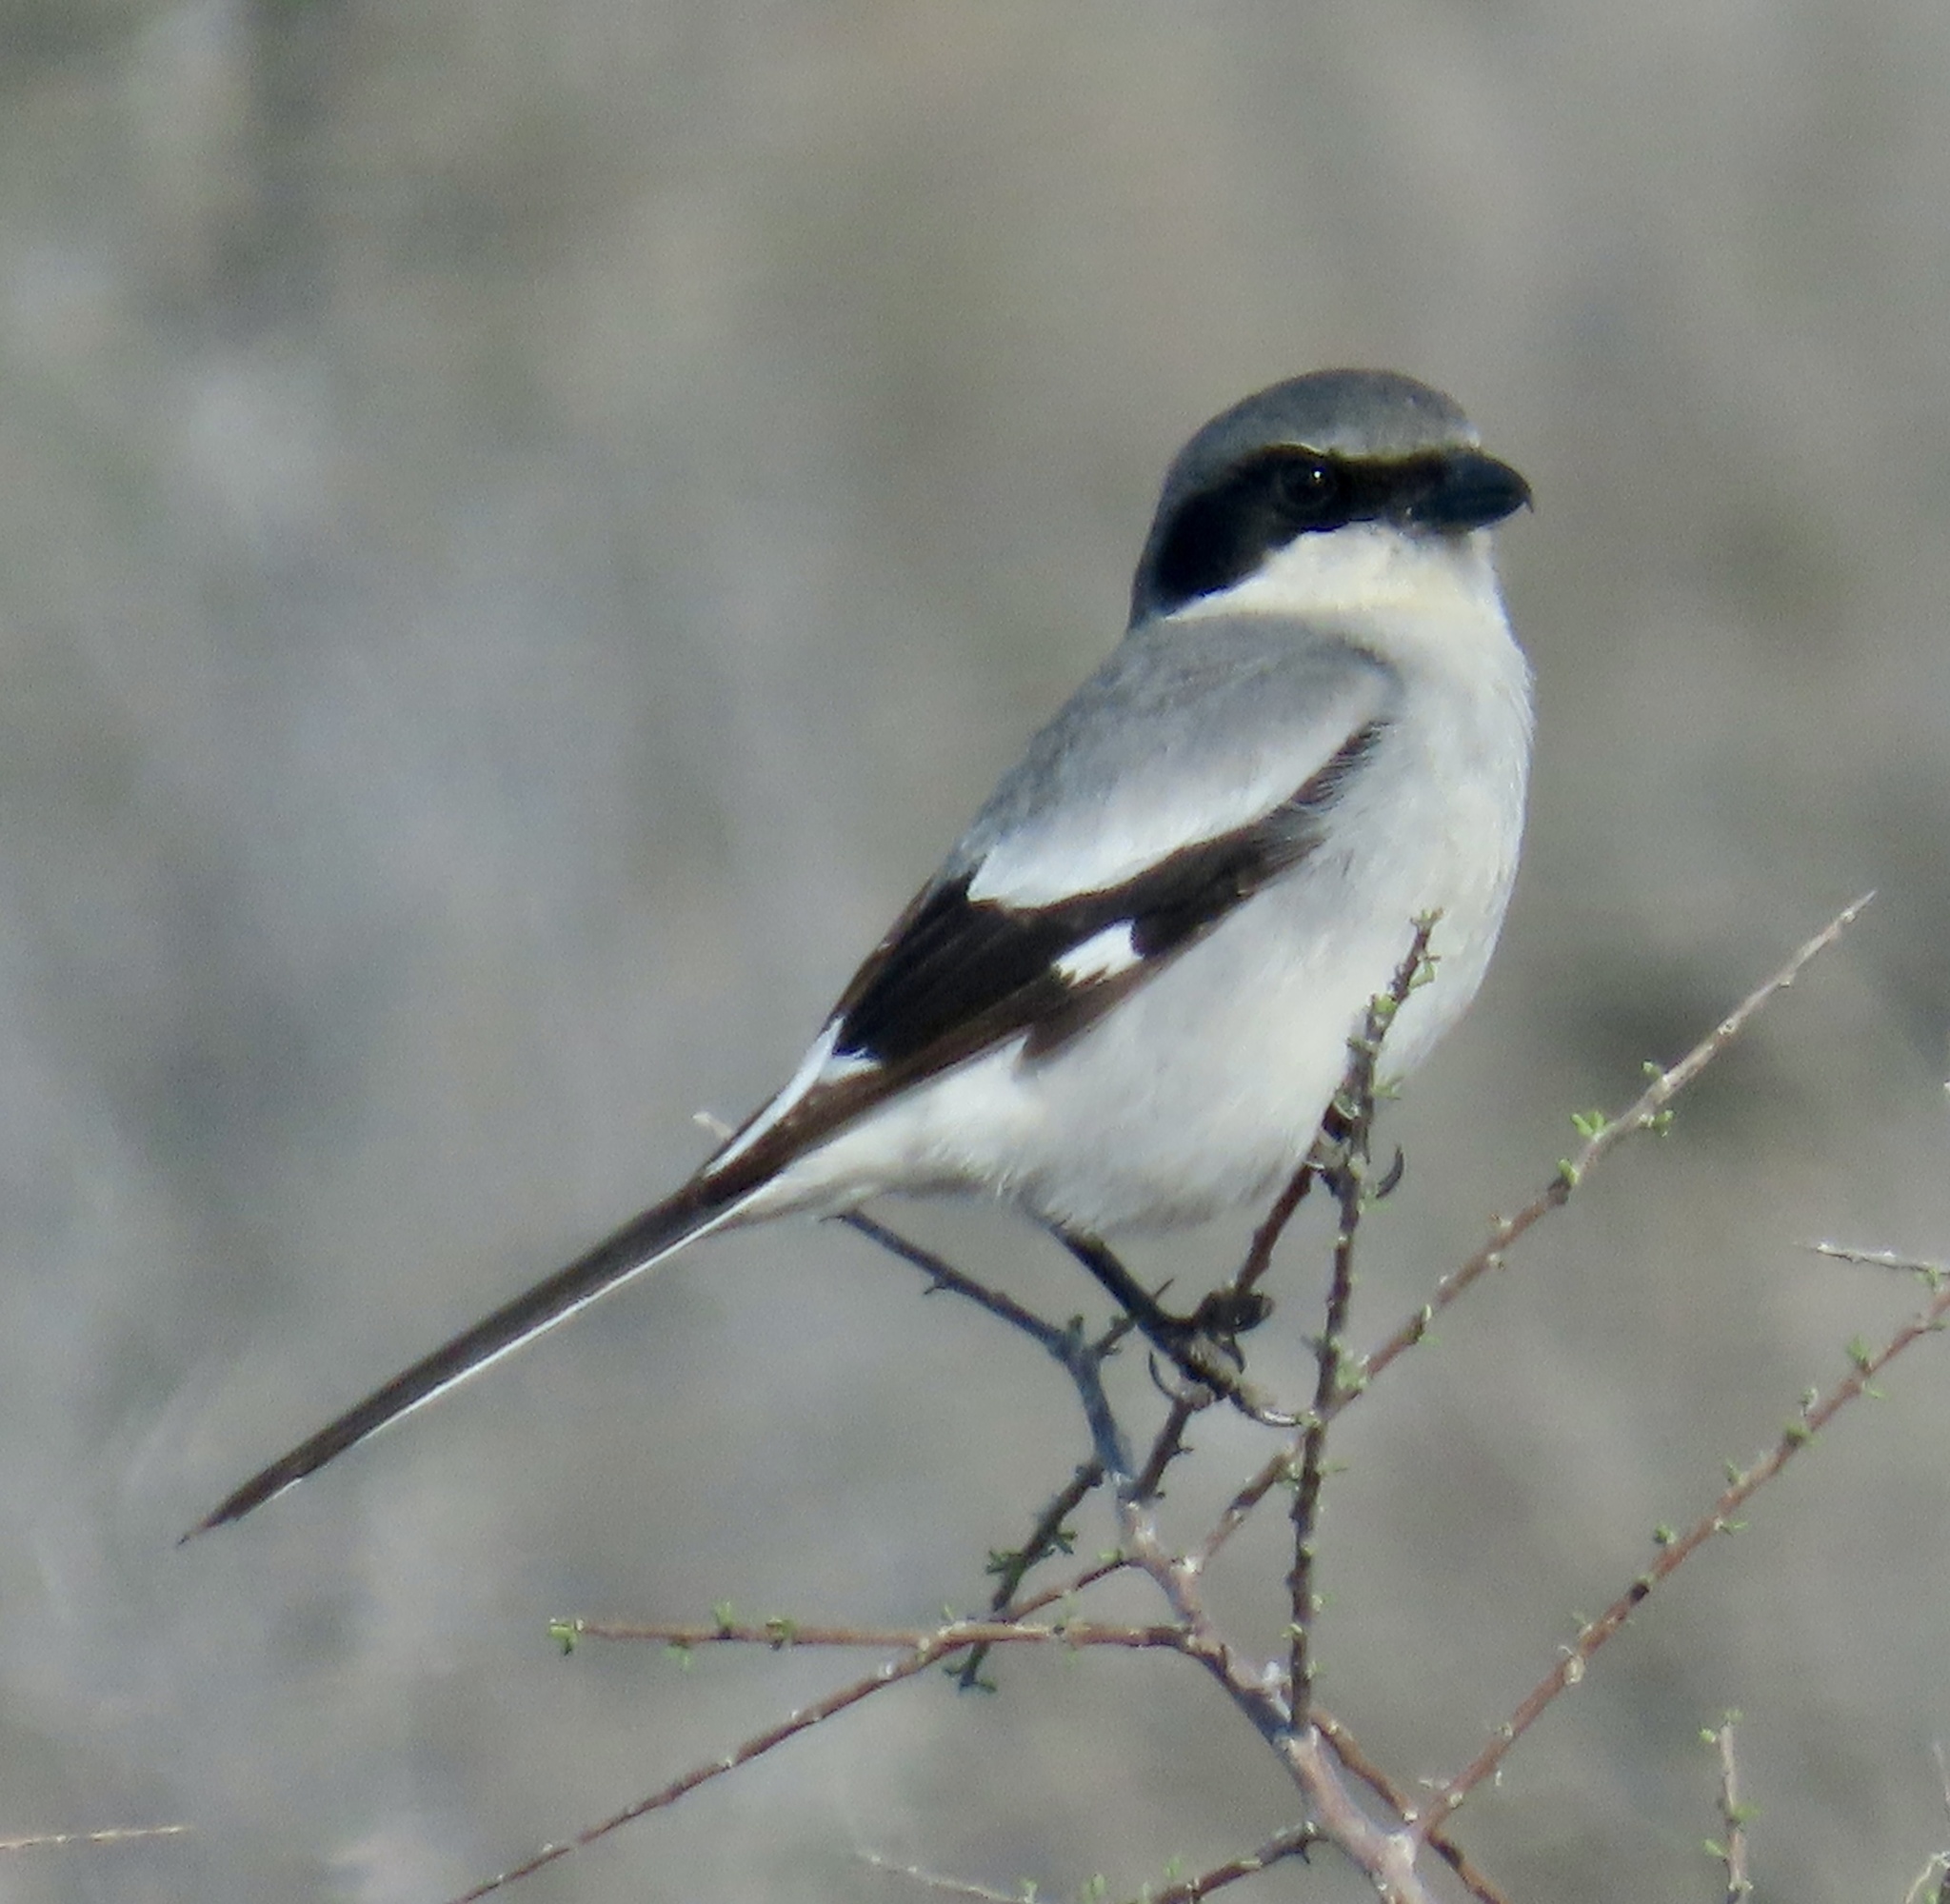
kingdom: Animalia
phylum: Chordata
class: Aves
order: Passeriformes
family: Laniidae
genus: Lanius
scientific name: Lanius ludovicianus
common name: Loggerhead shrike
